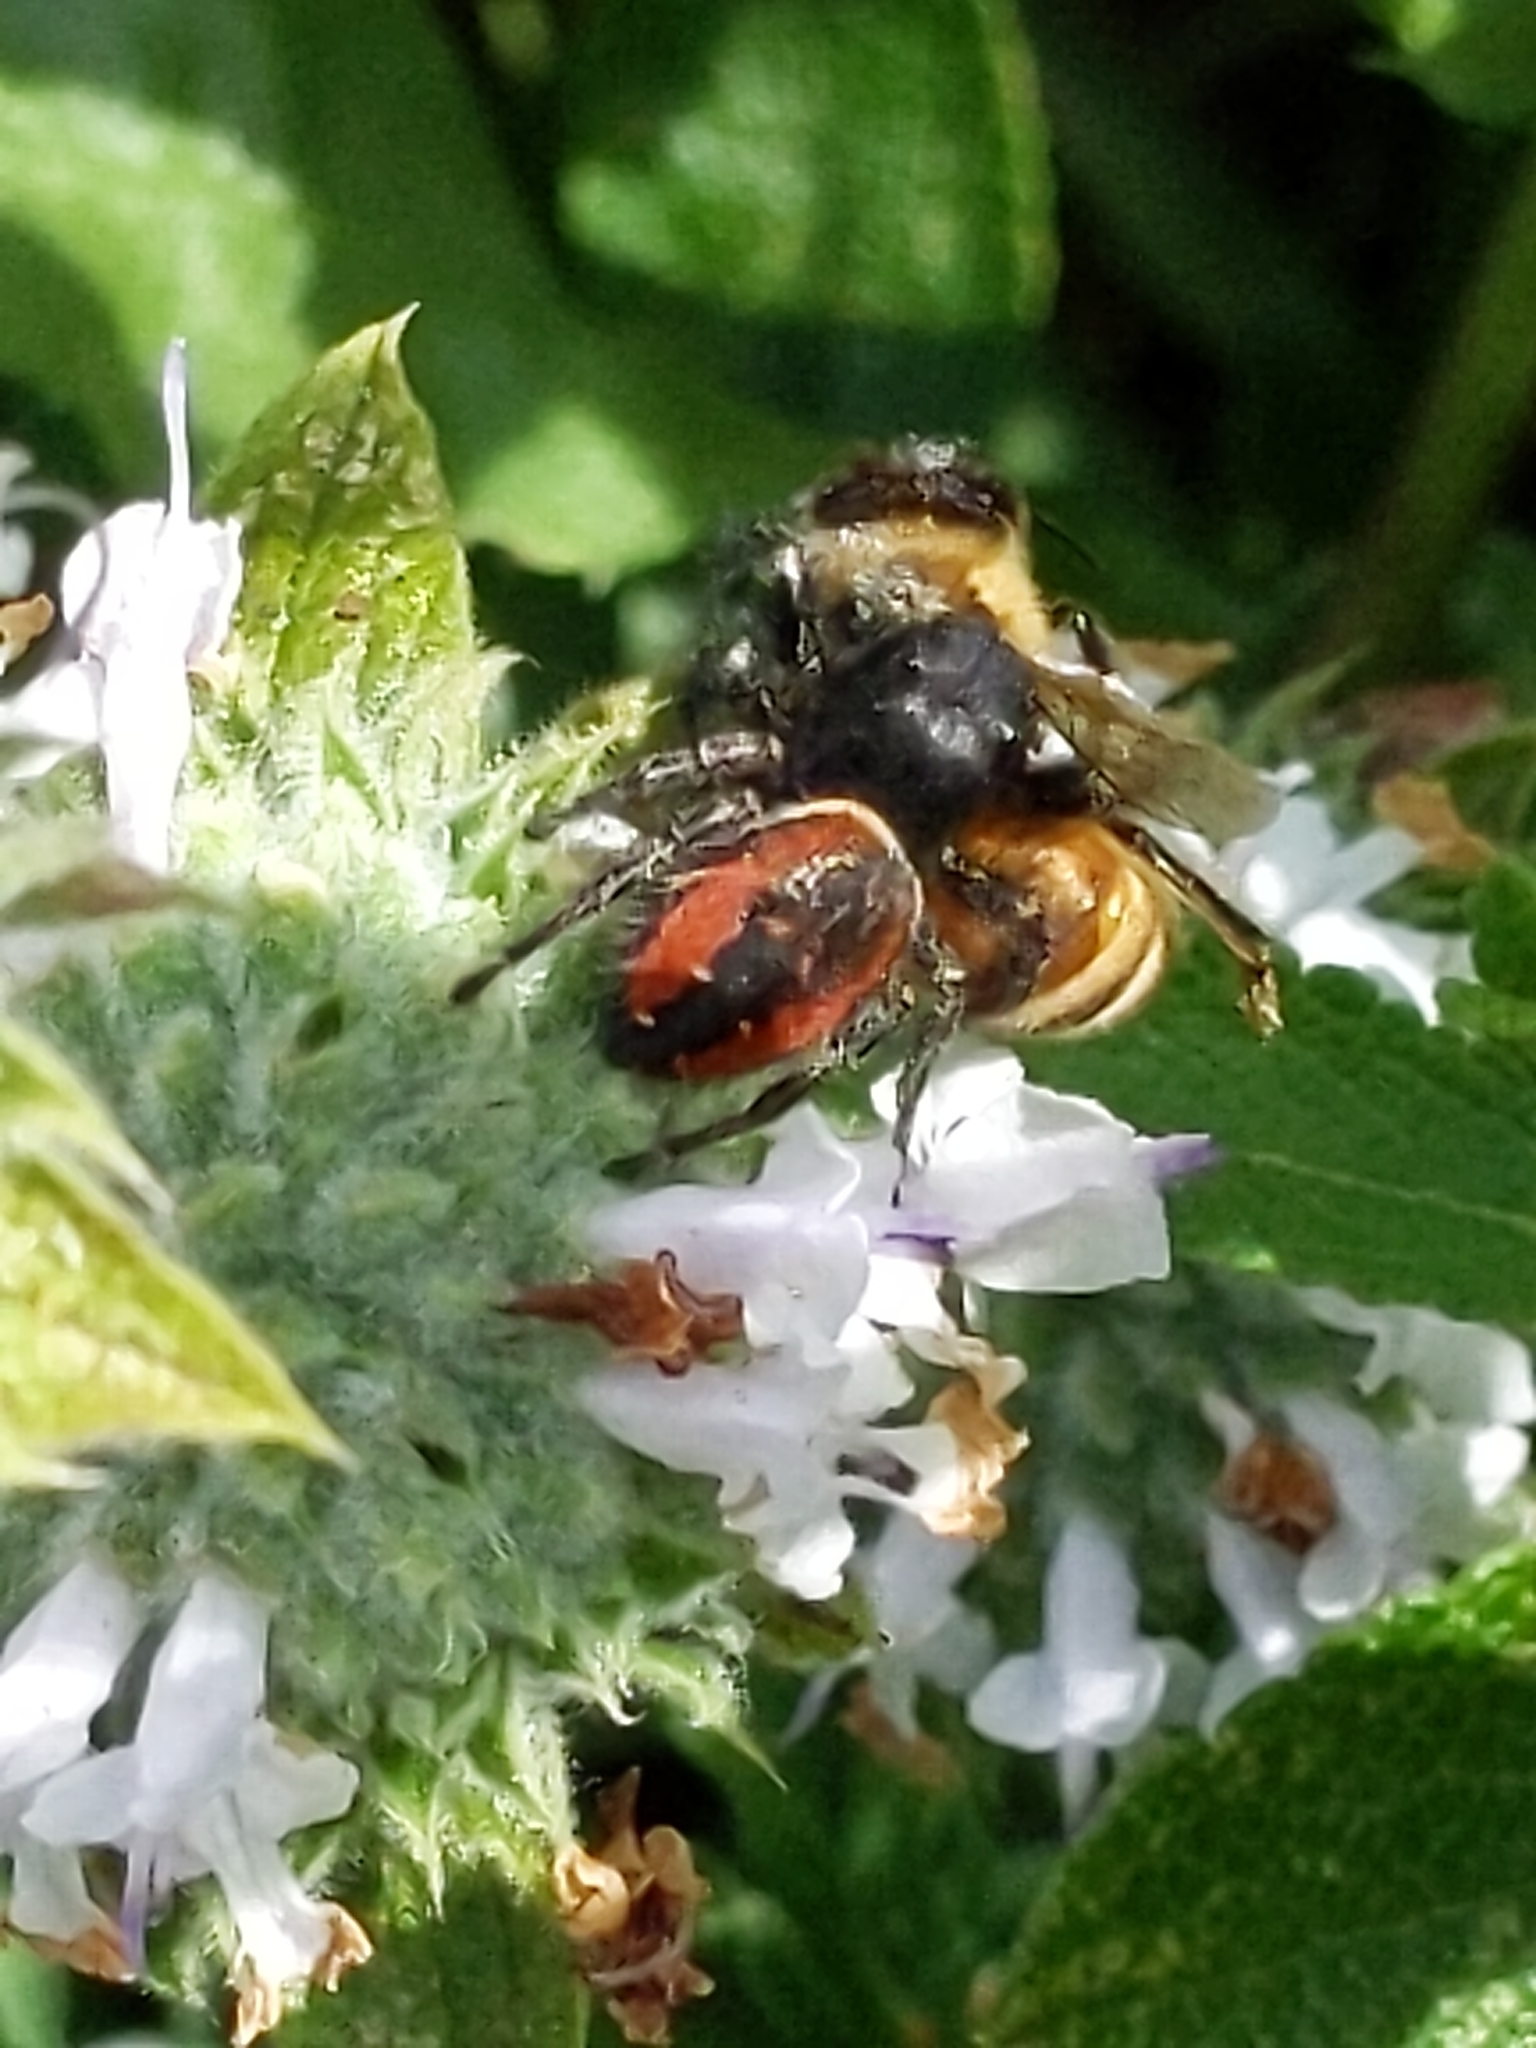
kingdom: Animalia
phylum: Arthropoda
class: Arachnida
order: Araneae
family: Salticidae
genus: Phidippus
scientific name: Phidippus johnsoni
